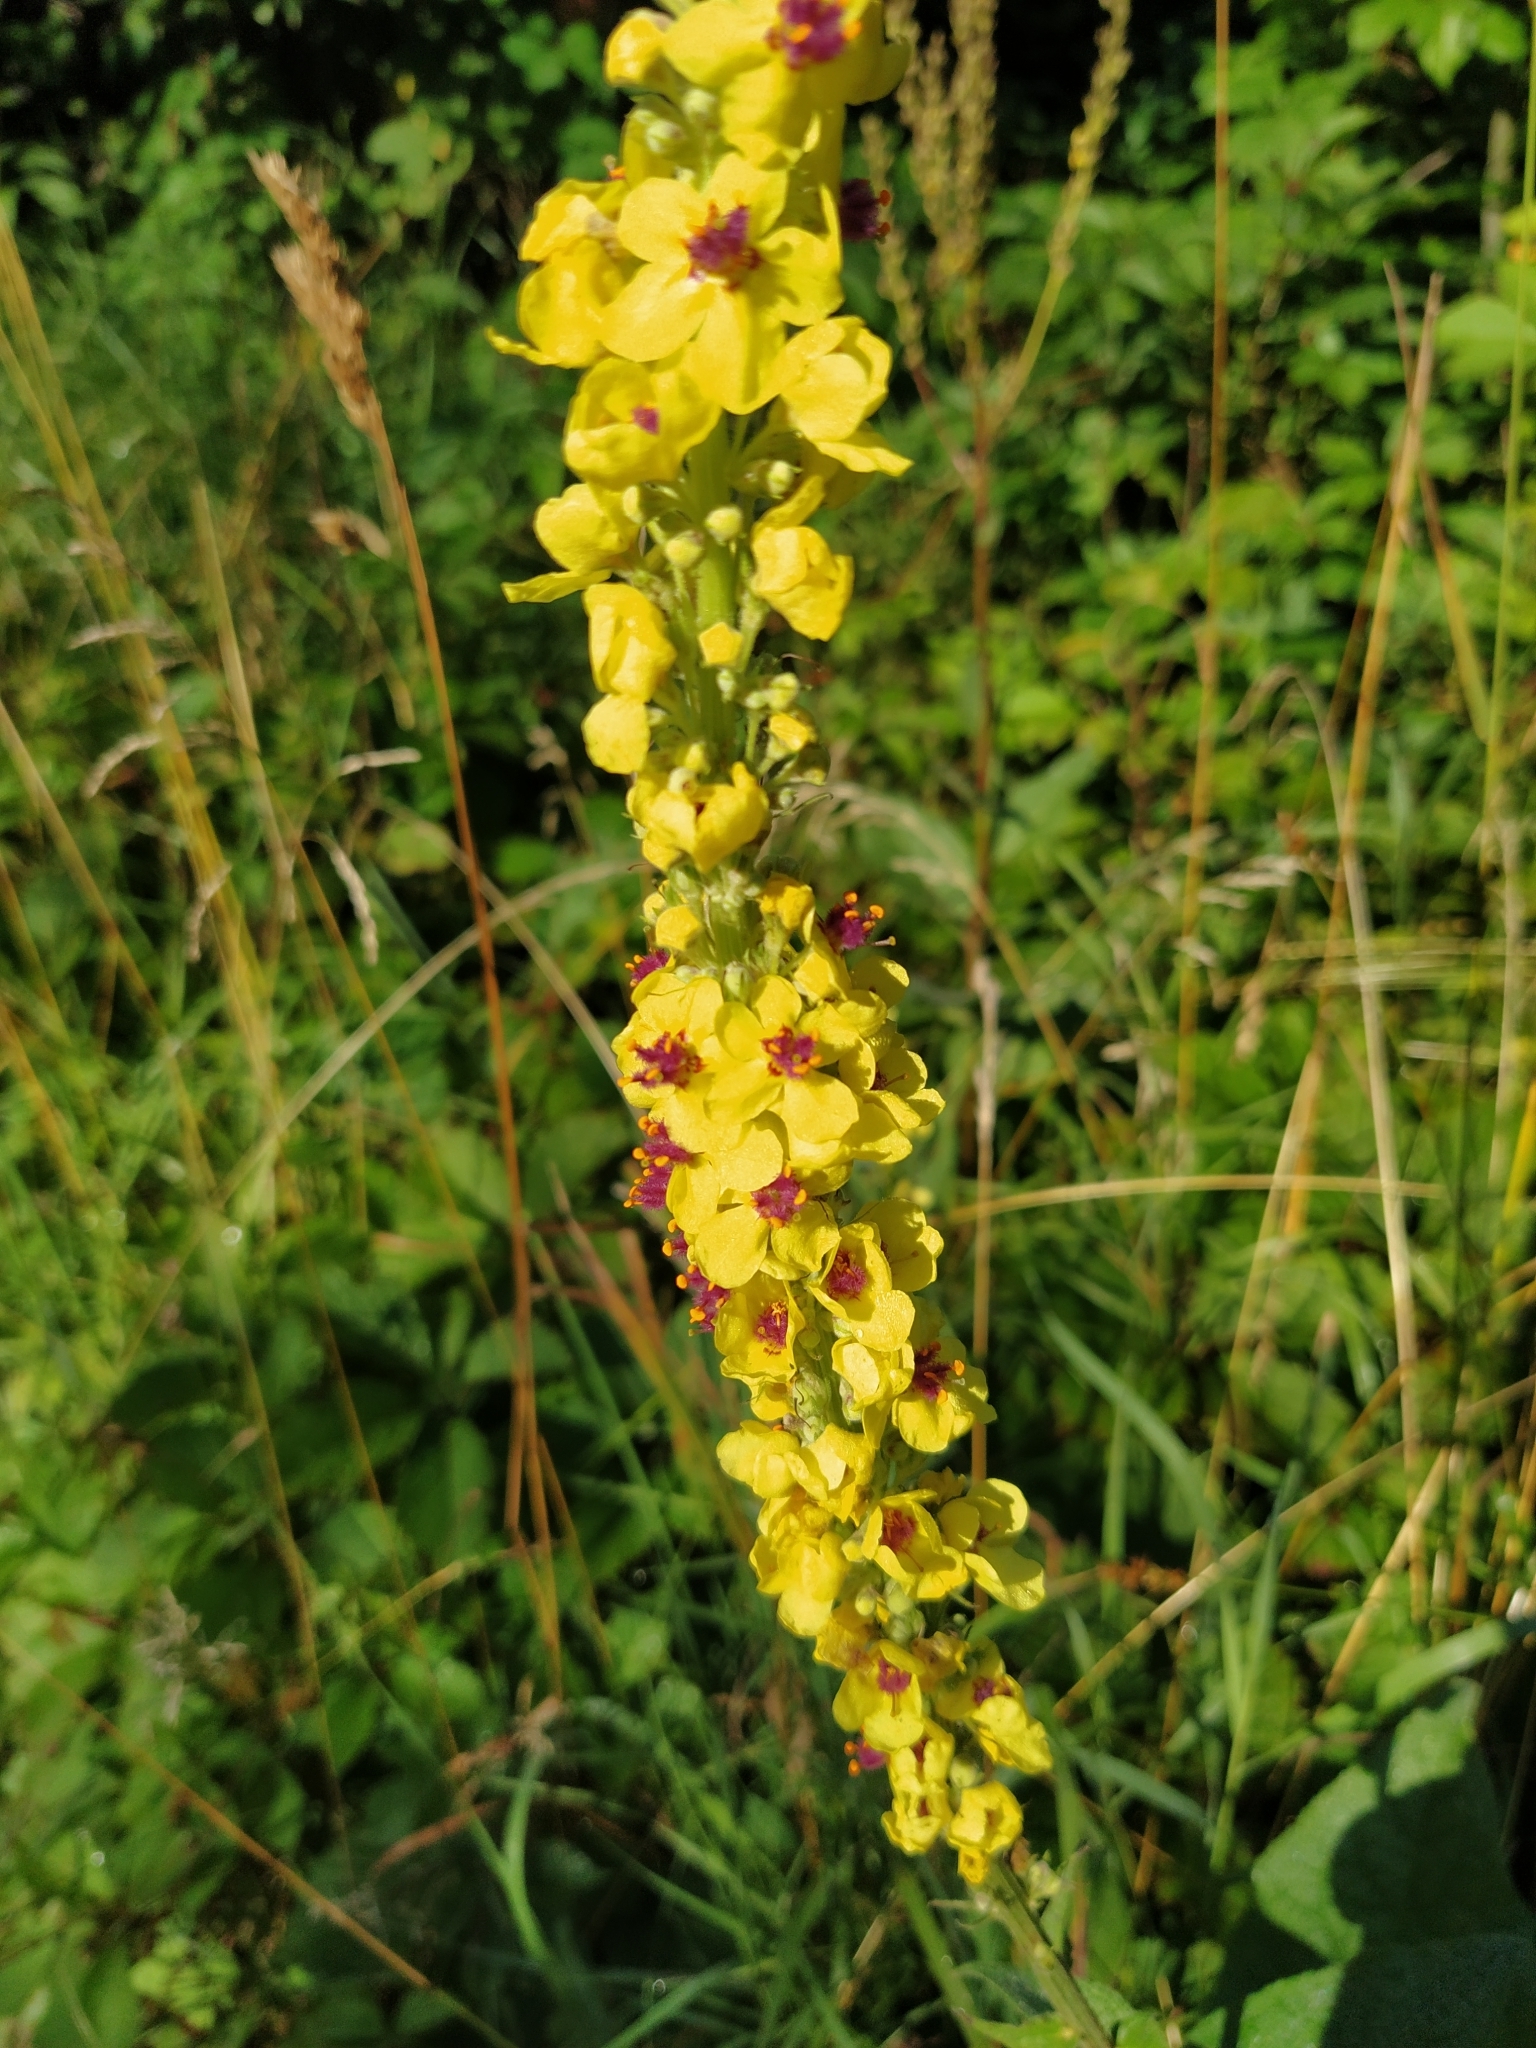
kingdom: Plantae
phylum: Tracheophyta
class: Magnoliopsida
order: Lamiales
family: Scrophulariaceae
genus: Verbascum
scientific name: Verbascum nigrum
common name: Dark mullein
